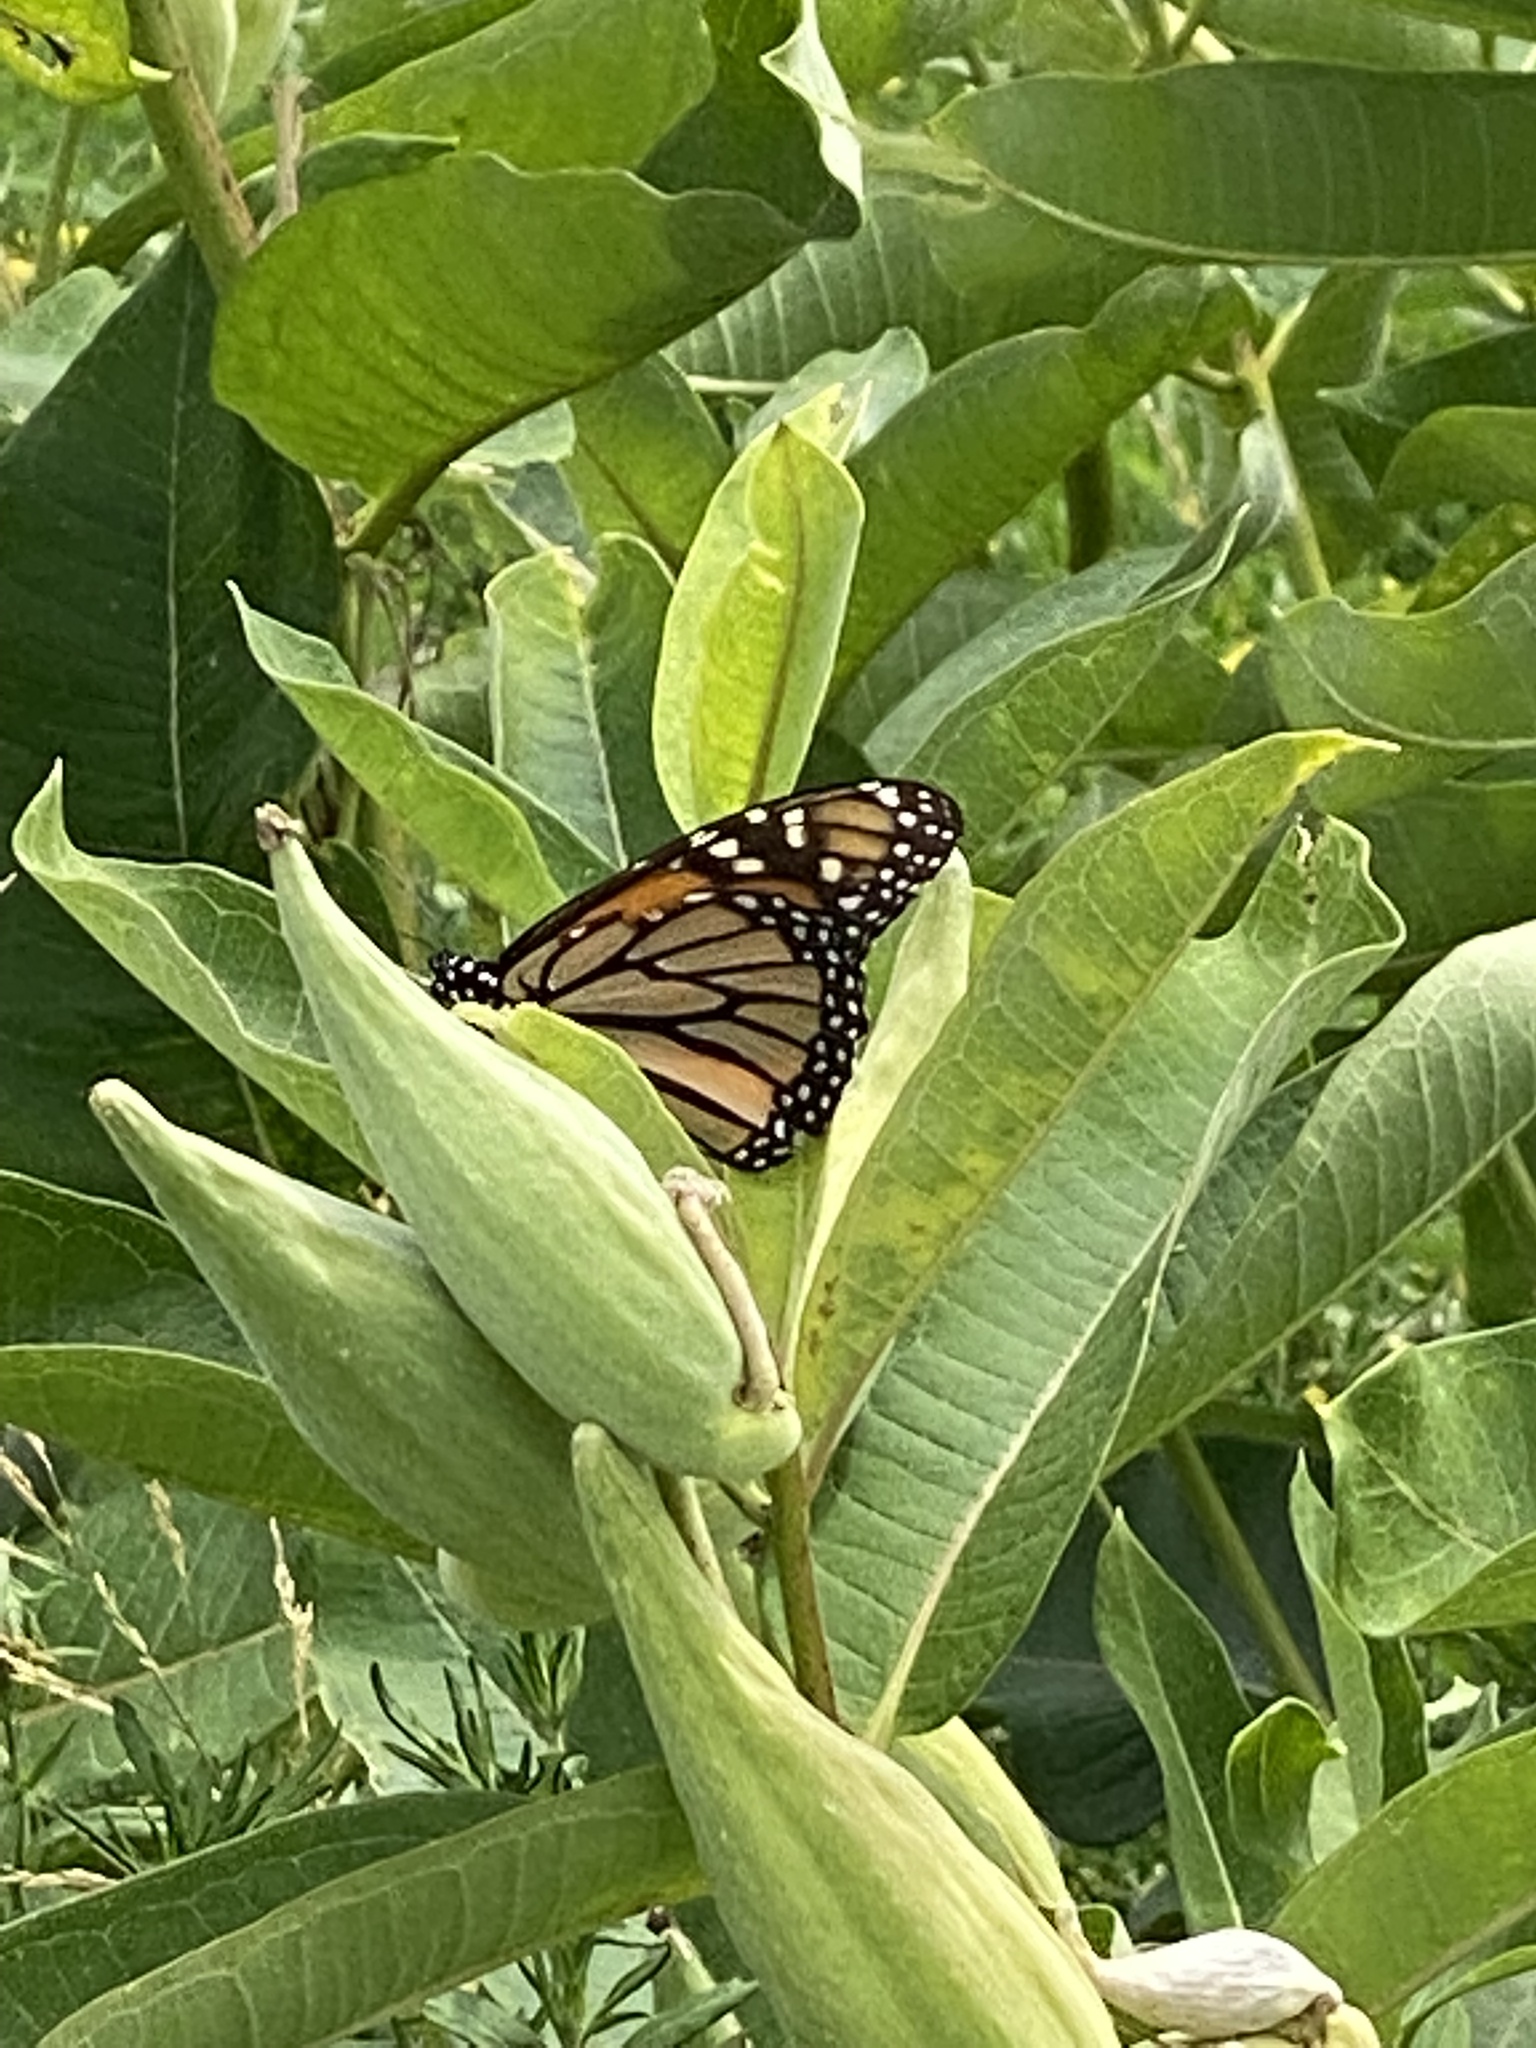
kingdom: Animalia
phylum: Arthropoda
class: Insecta
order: Lepidoptera
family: Nymphalidae
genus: Danaus
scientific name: Danaus plexippus
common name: Monarch
